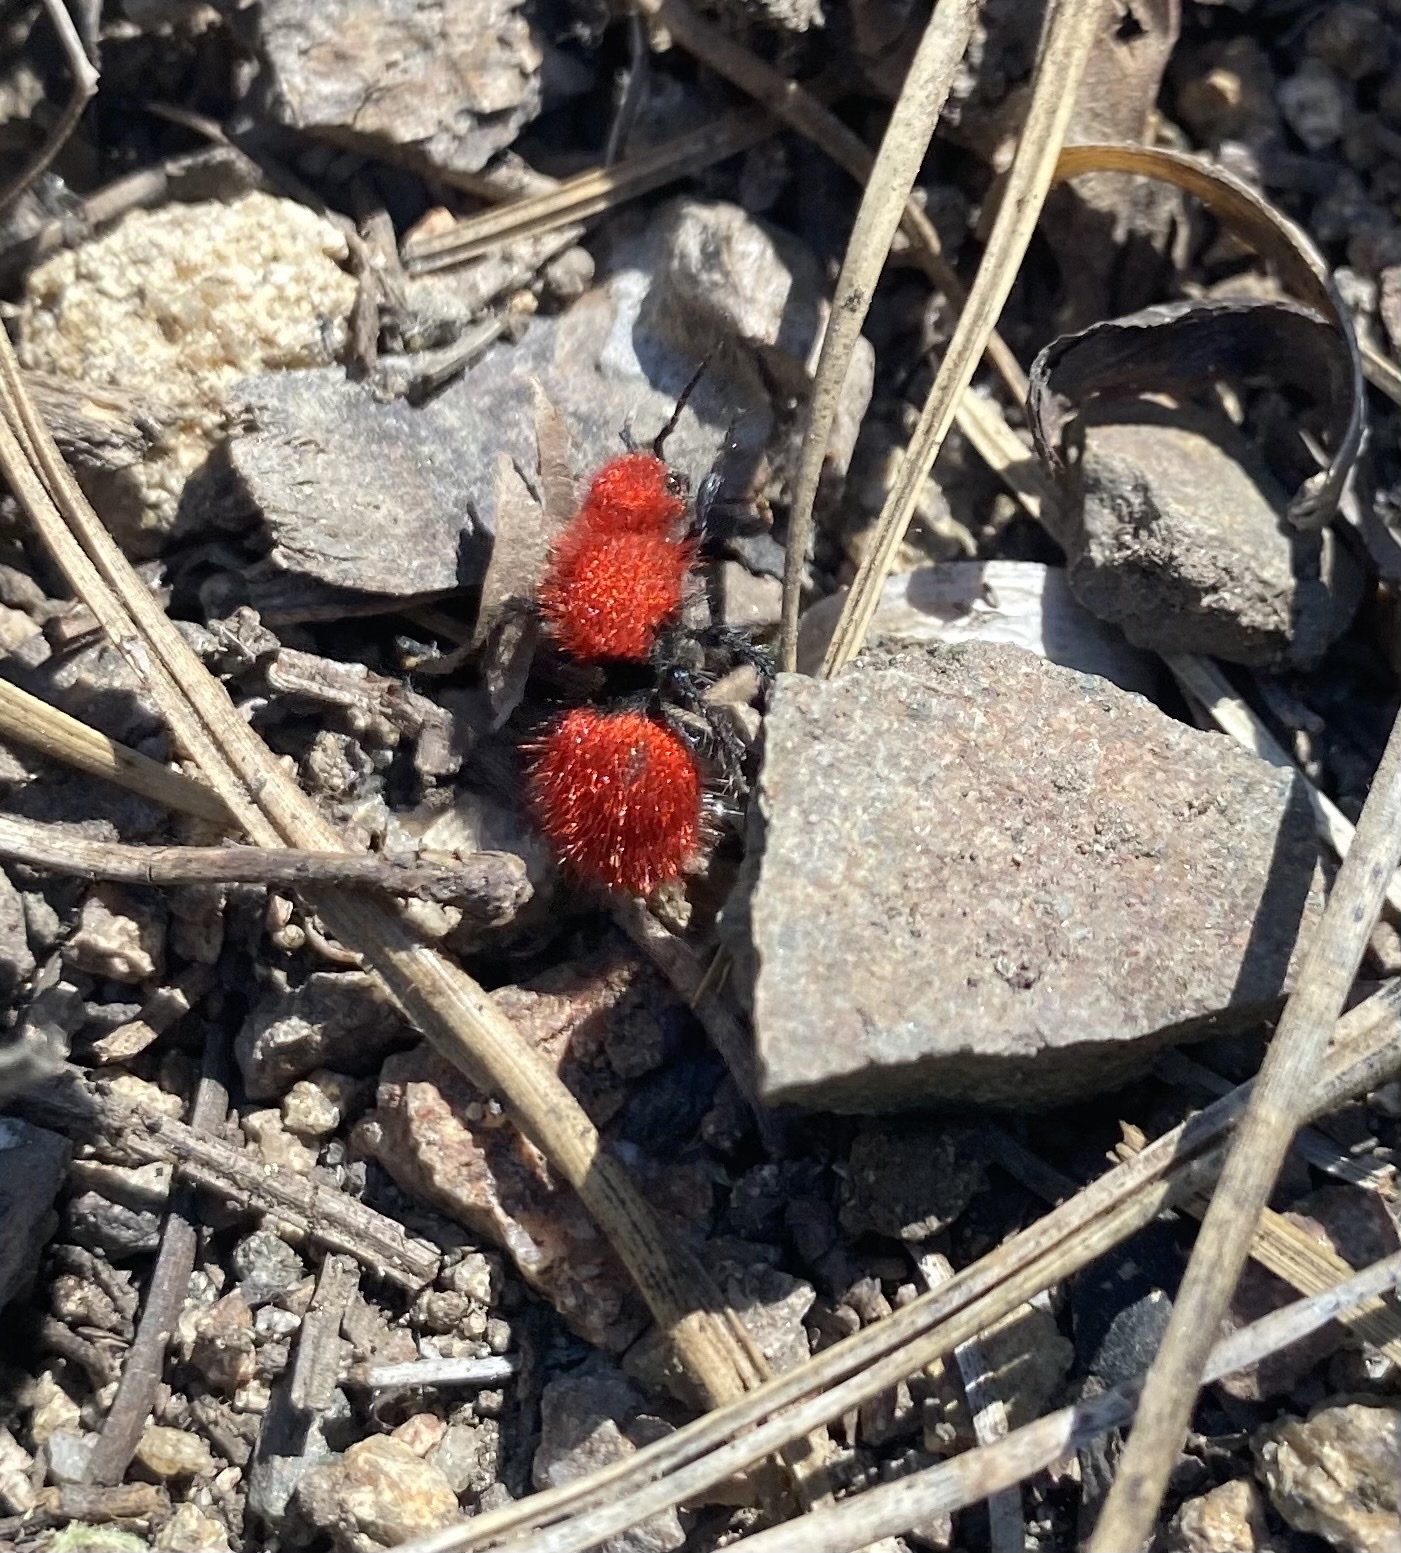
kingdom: Animalia
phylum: Arthropoda
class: Insecta
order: Hymenoptera
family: Mutillidae
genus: Dasymutilla
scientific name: Dasymutilla
